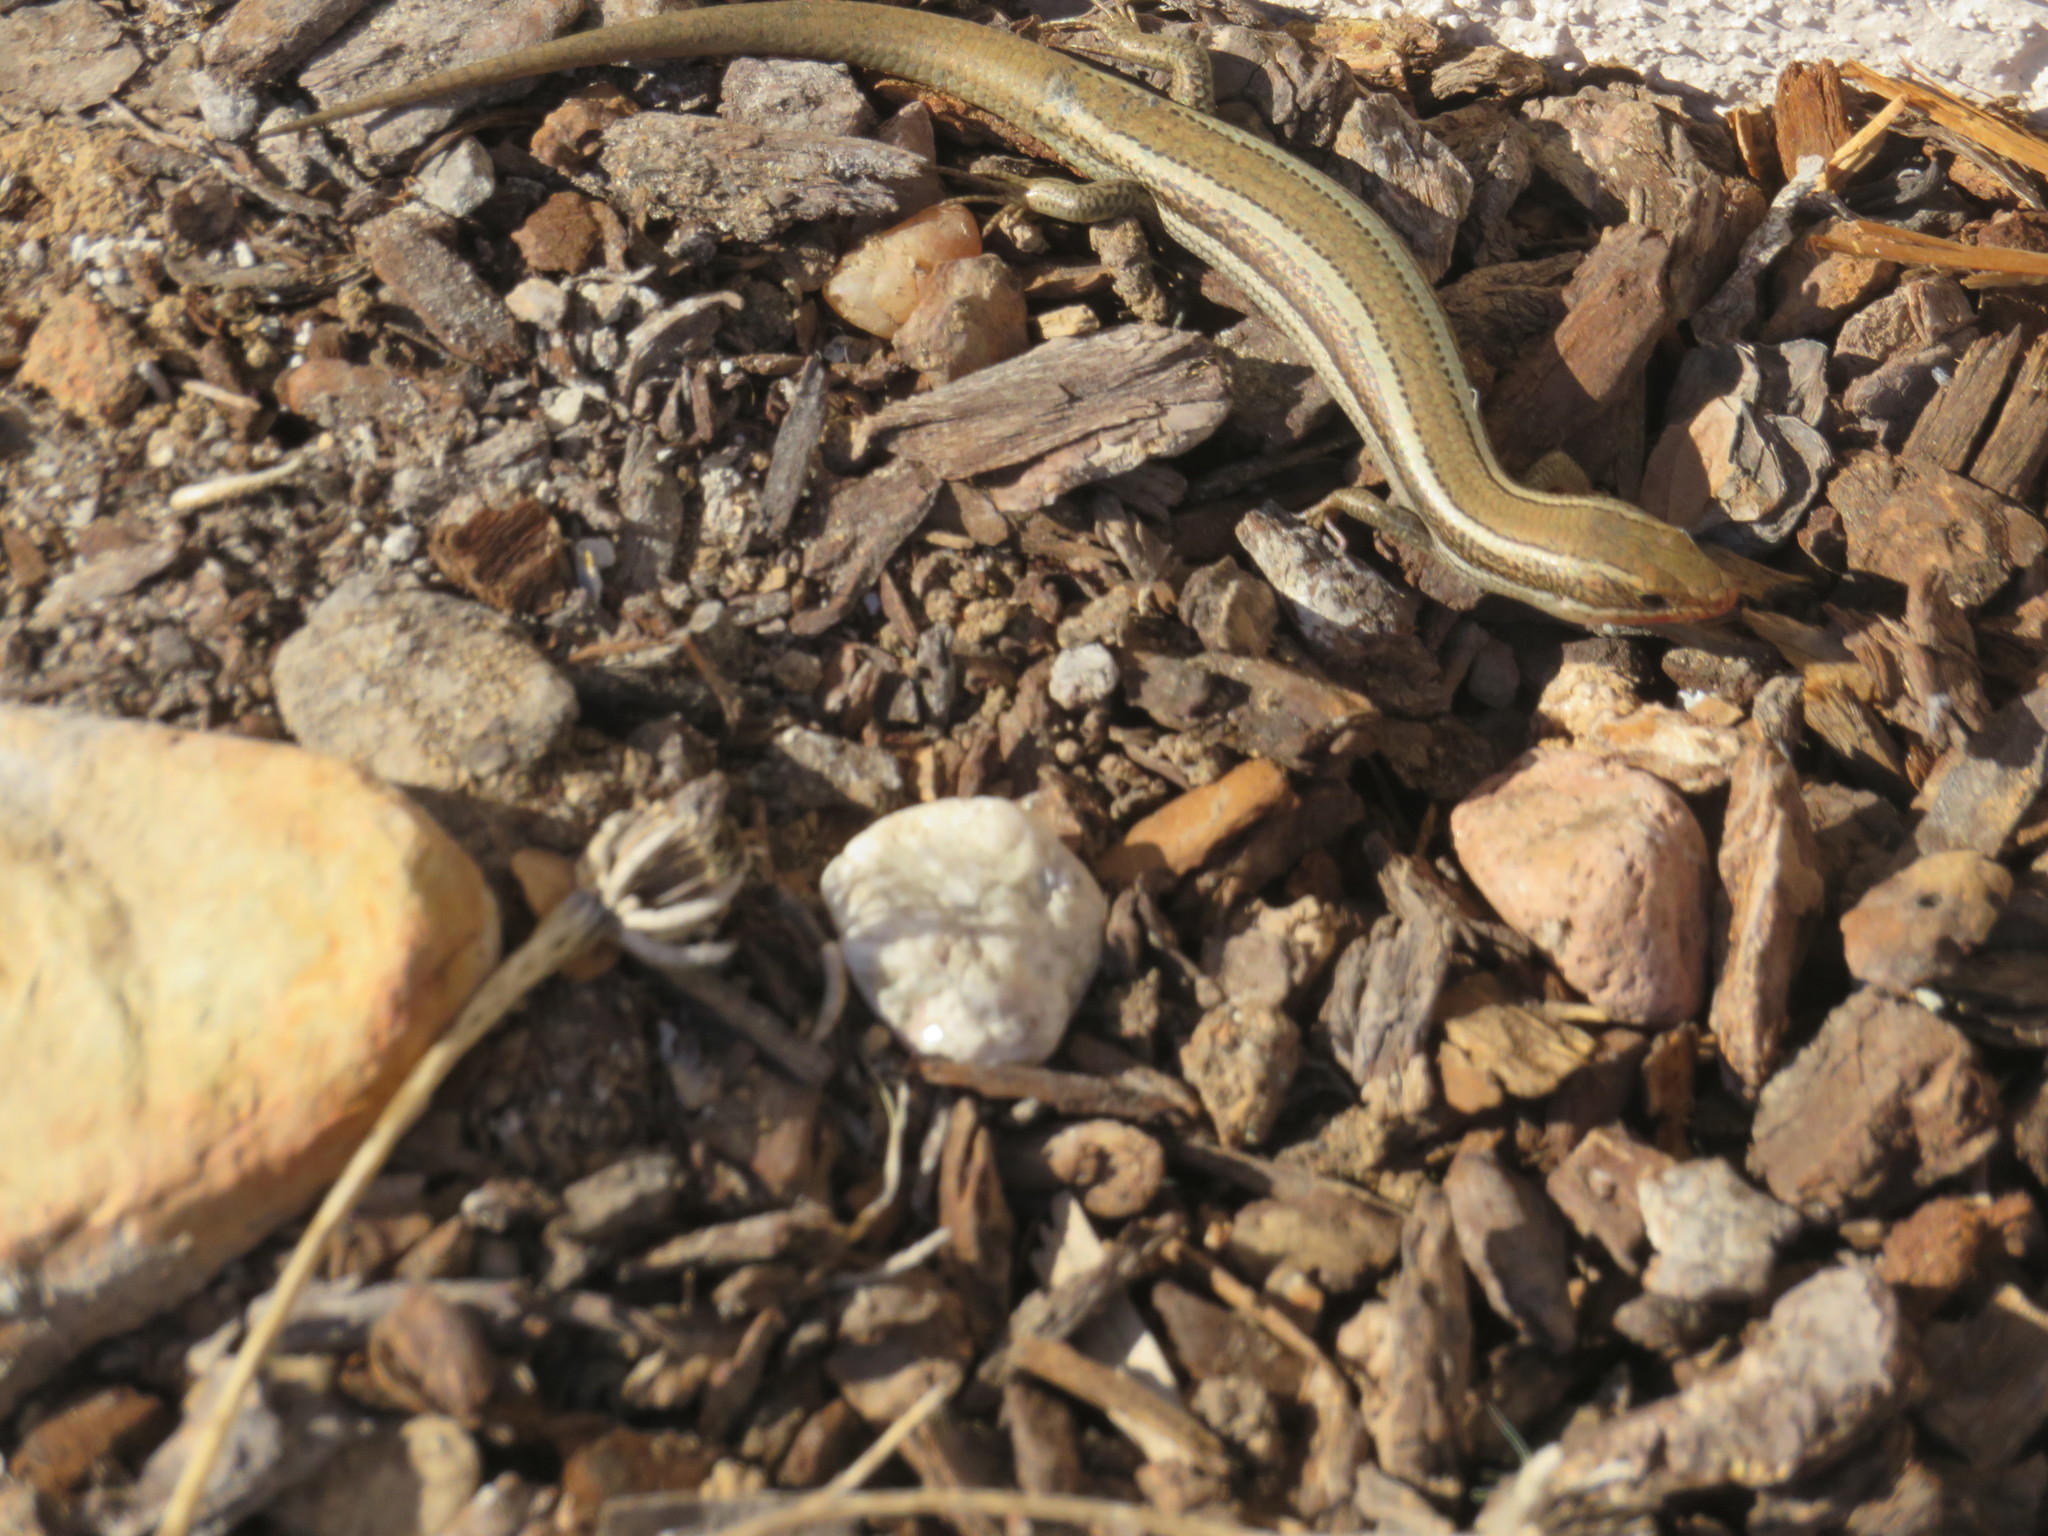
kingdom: Animalia
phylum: Chordata
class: Squamata
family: Scincidae
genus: Plestiodon
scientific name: Plestiodon skiltonianus
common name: Coronado island skink [interparietalis]
